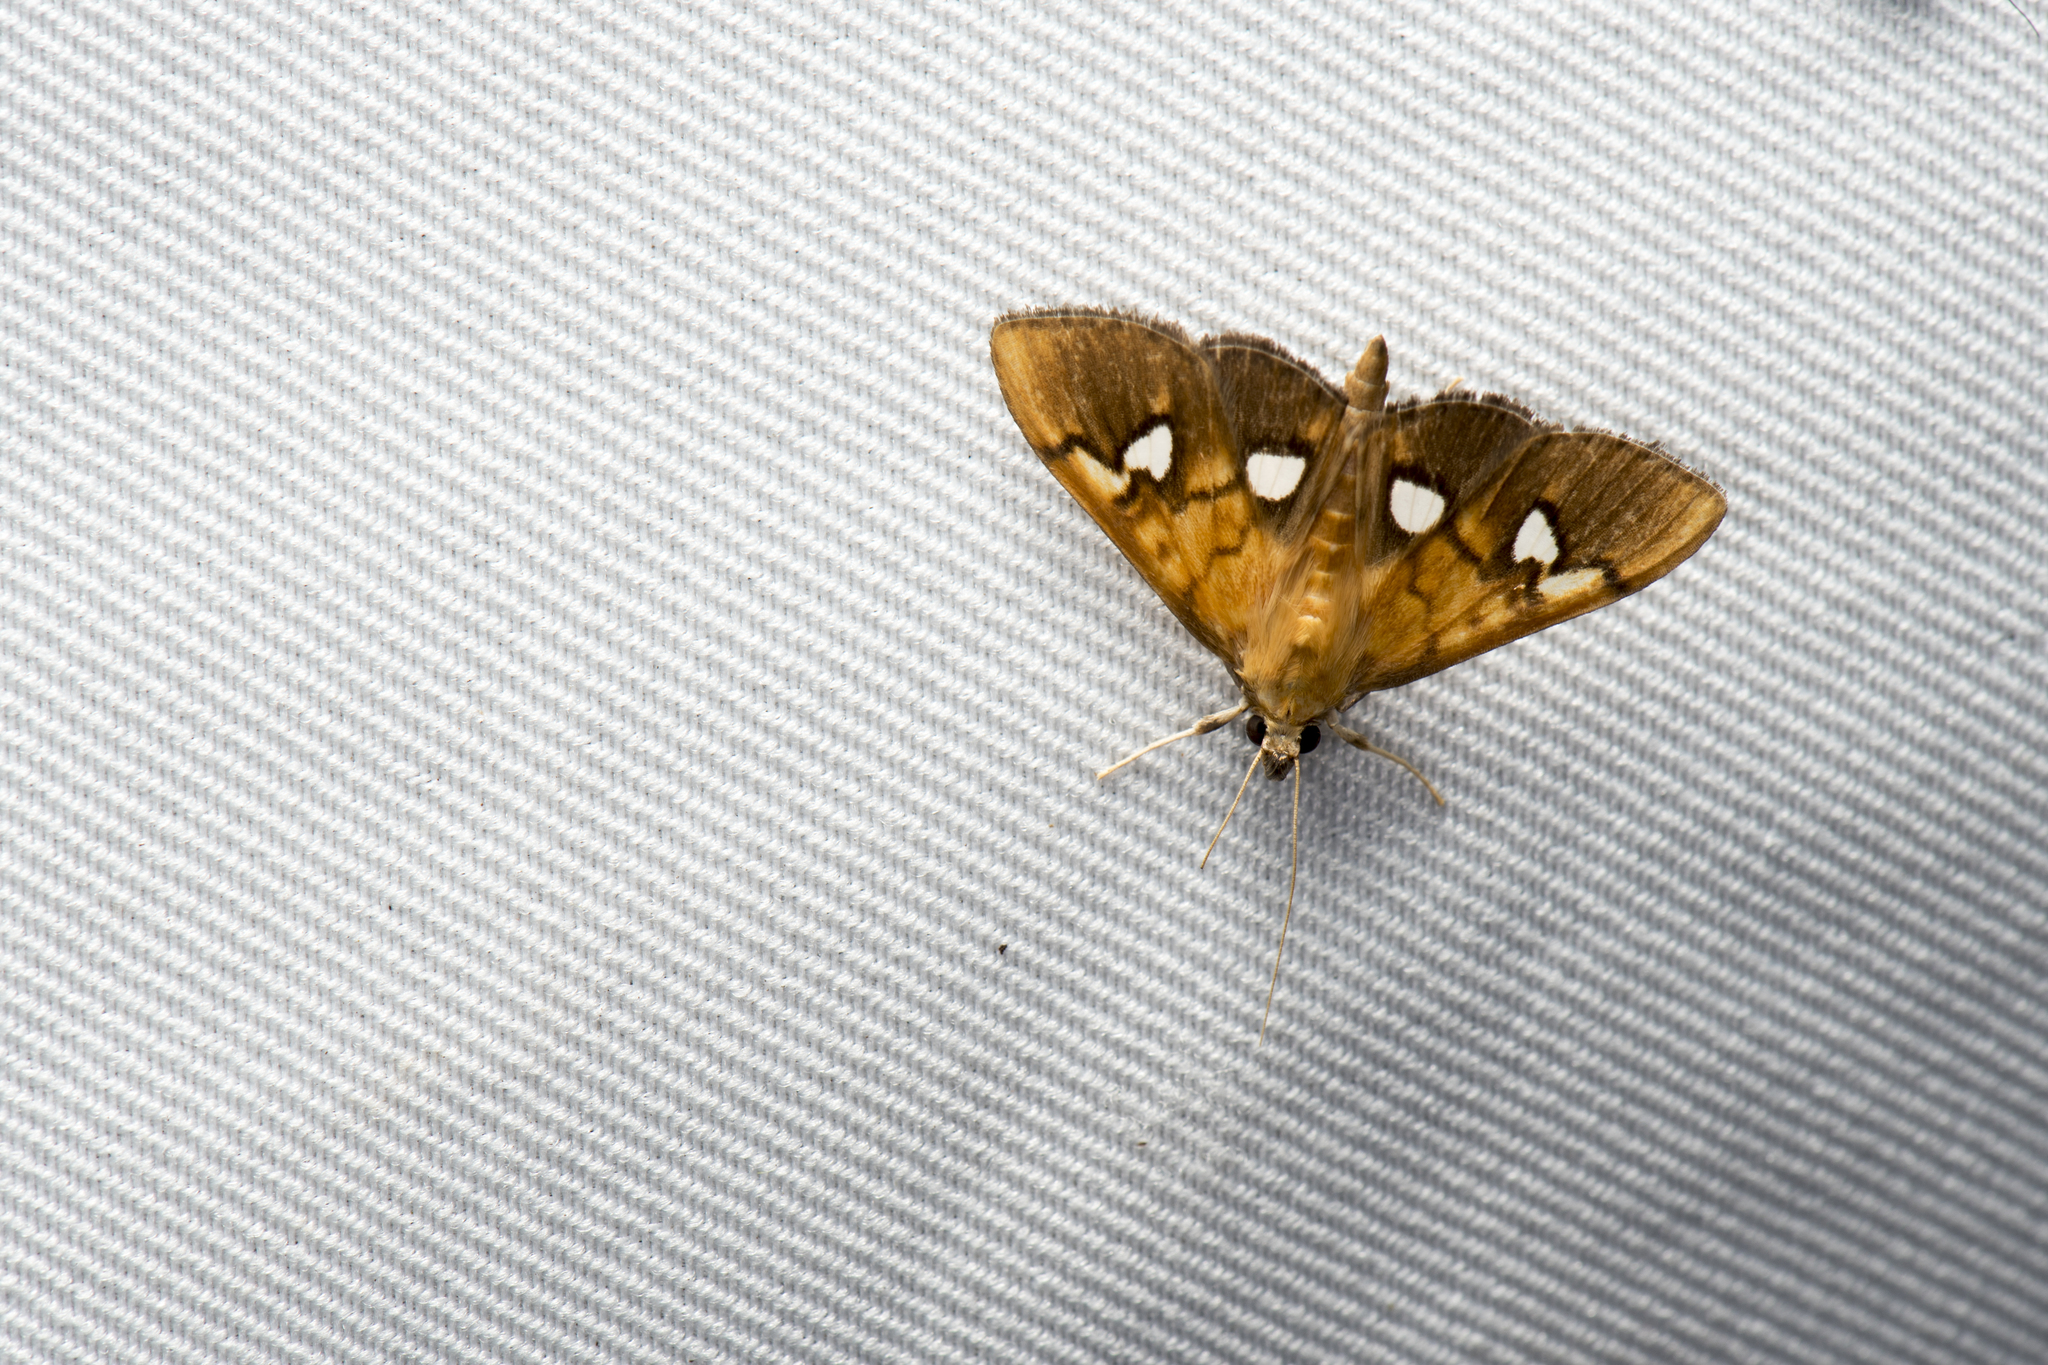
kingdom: Animalia
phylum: Arthropoda
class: Insecta
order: Lepidoptera
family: Crambidae
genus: Nosophora
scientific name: Nosophora semitritalis
